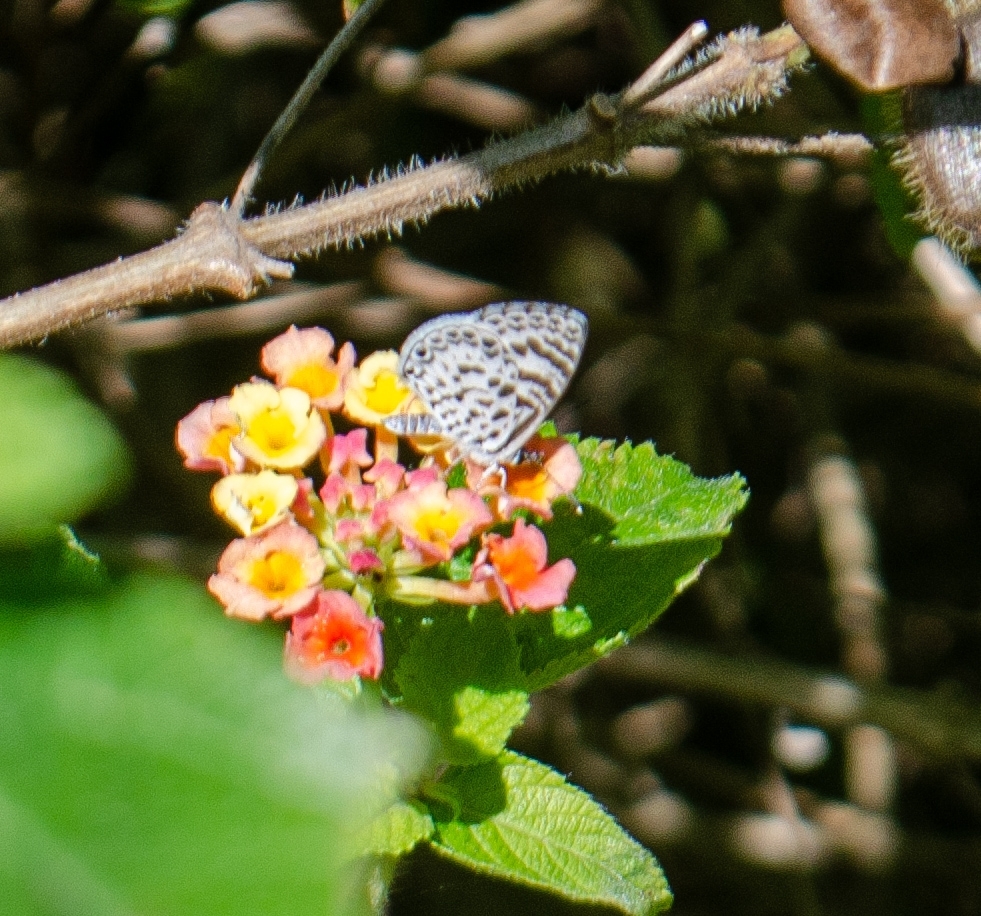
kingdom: Animalia
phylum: Arthropoda
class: Insecta
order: Lepidoptera
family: Lycaenidae
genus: Leptotes
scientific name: Leptotes cassius
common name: Cassius blue
